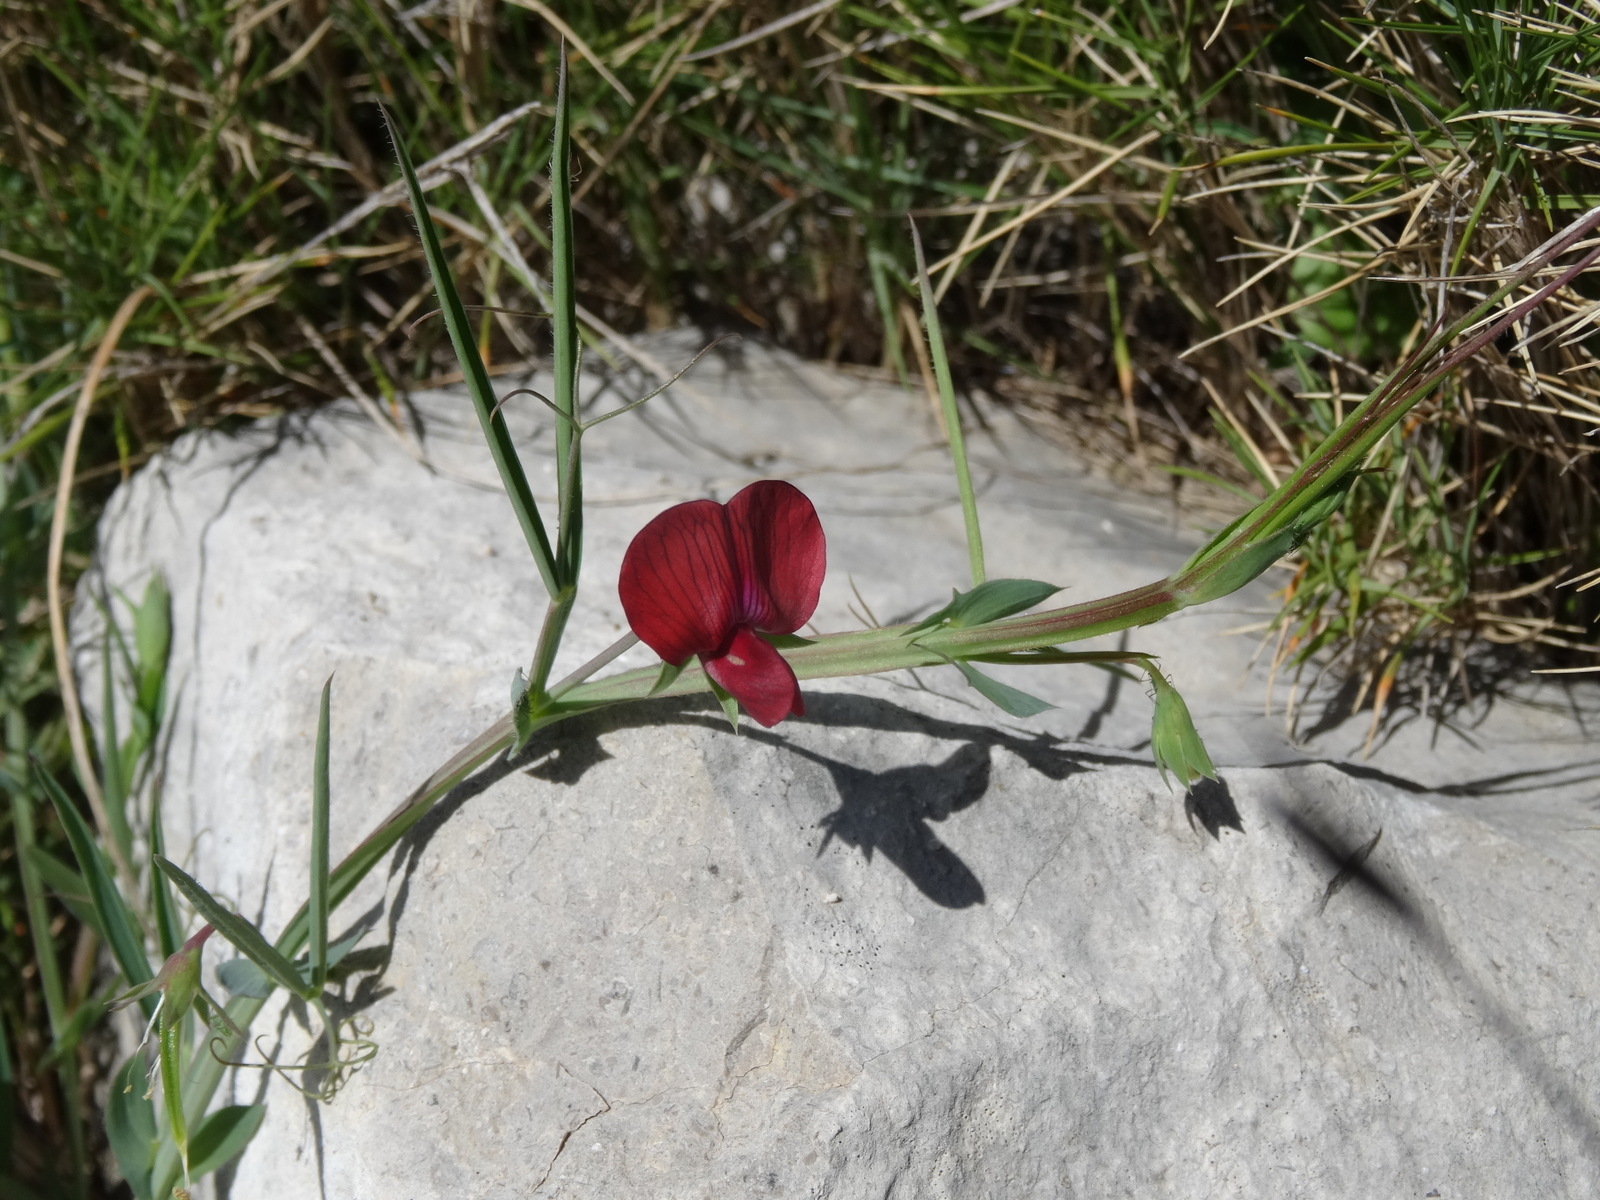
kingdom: Plantae
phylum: Tracheophyta
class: Magnoliopsida
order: Fabales
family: Fabaceae
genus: Lathyrus
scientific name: Lathyrus cicera
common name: Red vetchling
